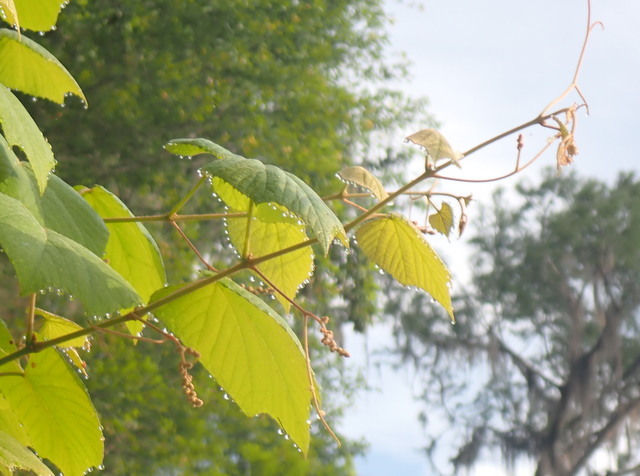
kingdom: Plantae
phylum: Tracheophyta
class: Magnoliopsida
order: Vitales
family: Vitaceae
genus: Vitis
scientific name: Vitis cinerea
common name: Ashy grape
